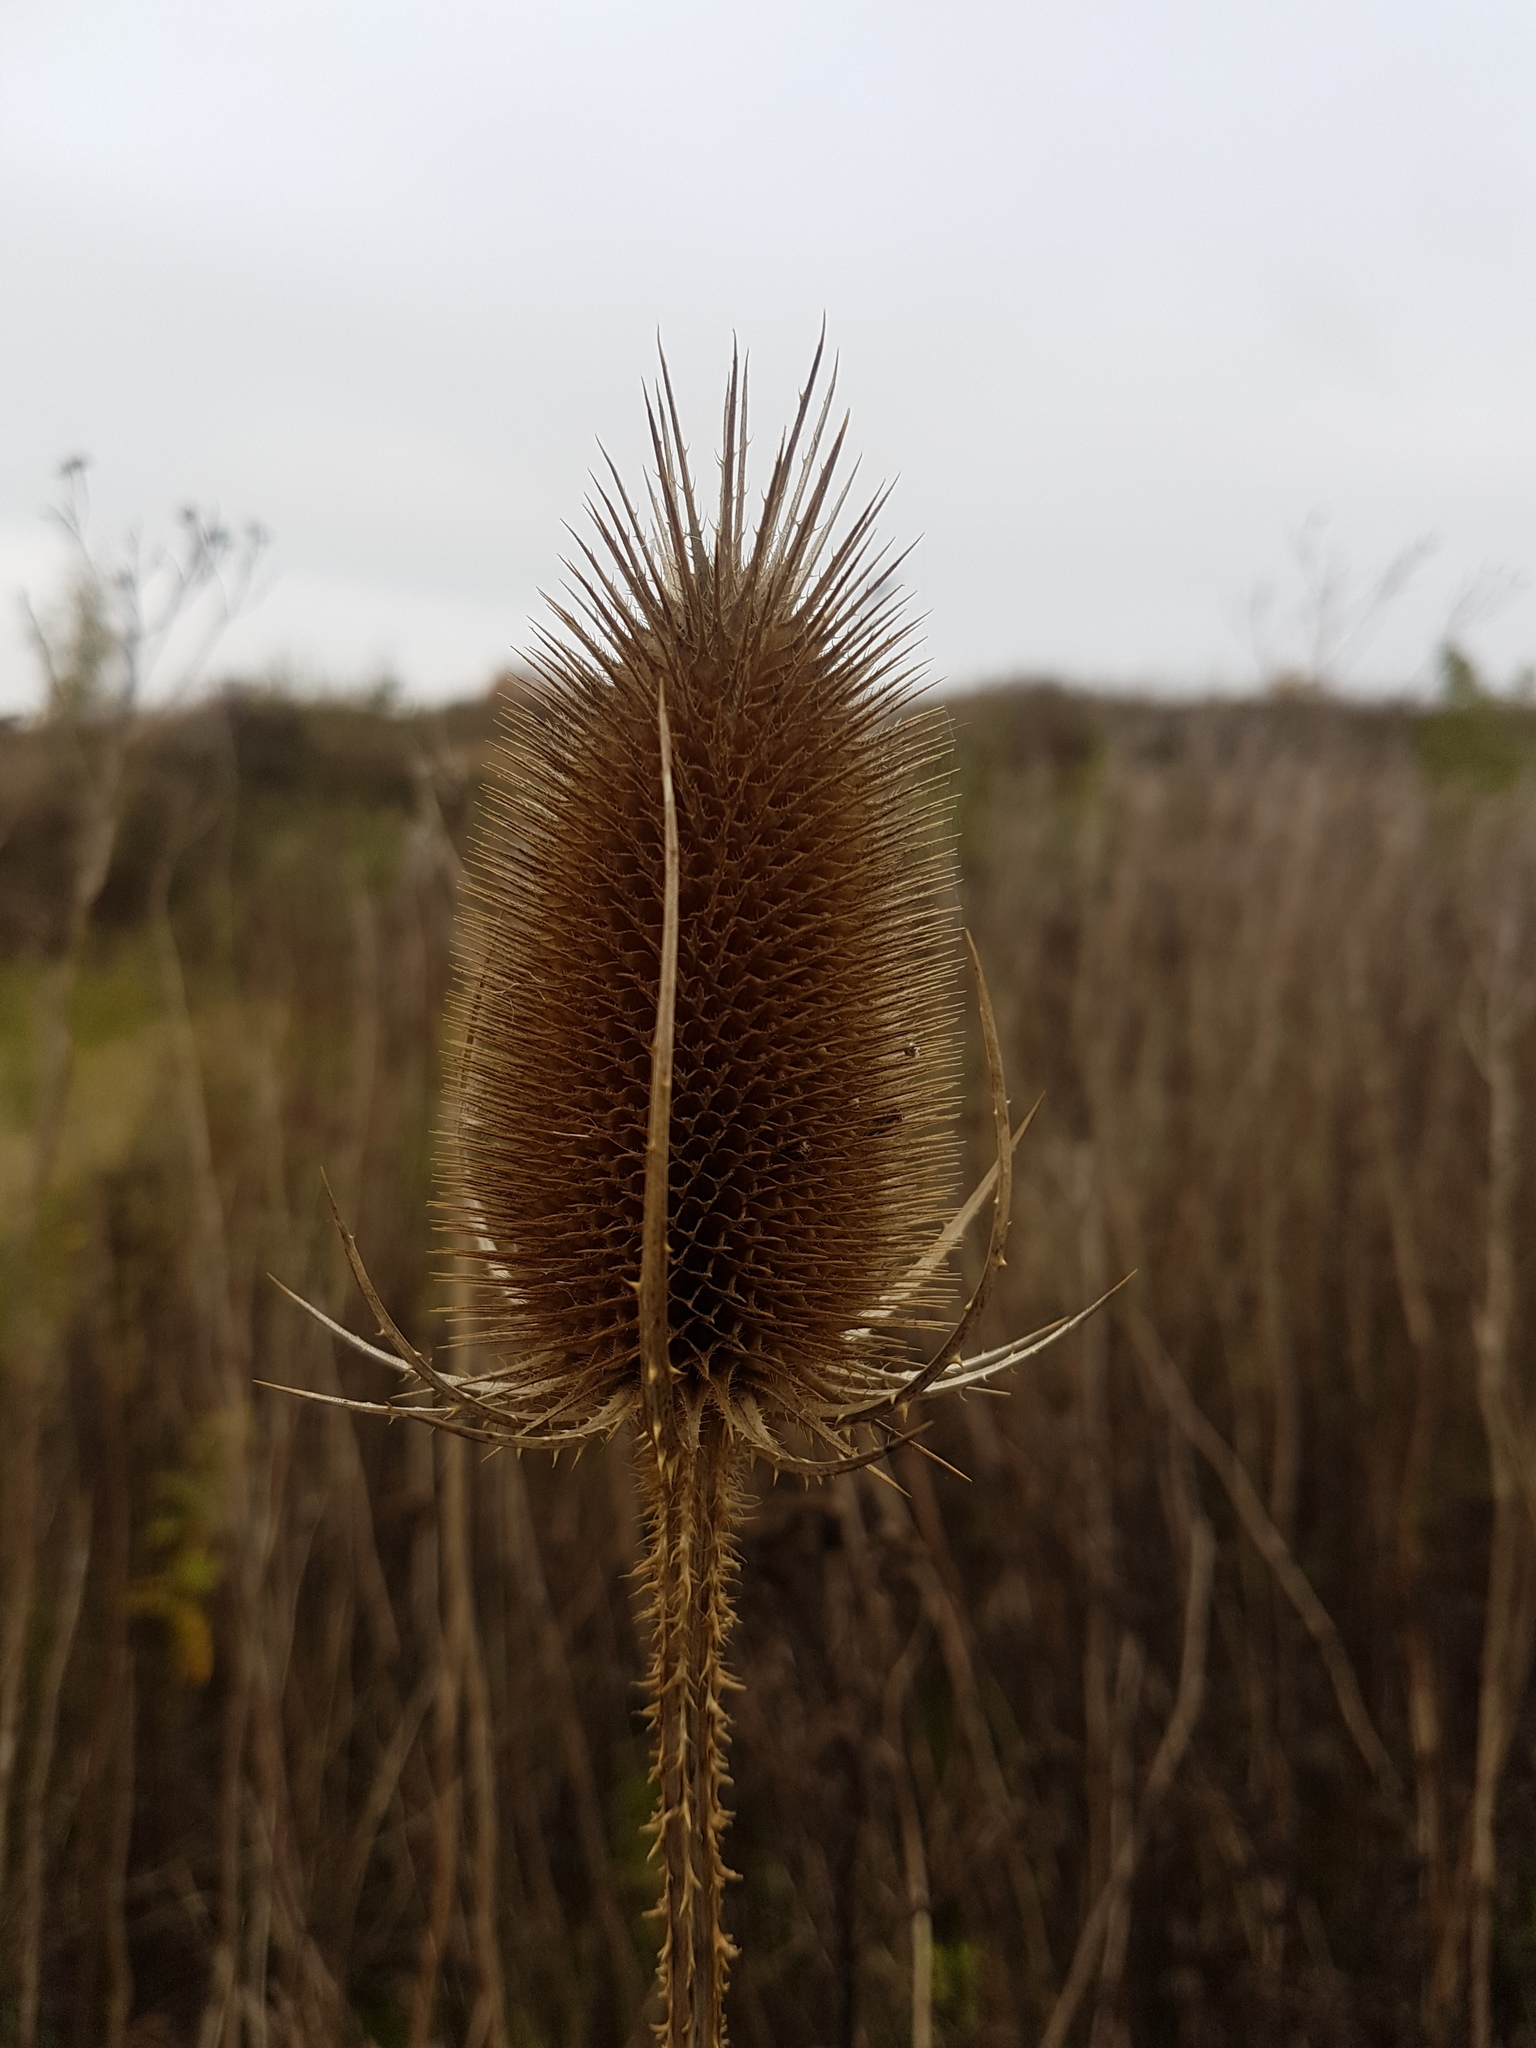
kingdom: Plantae
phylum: Tracheophyta
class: Magnoliopsida
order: Dipsacales
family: Caprifoliaceae
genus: Dipsacus
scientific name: Dipsacus fullonum
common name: Teasel
